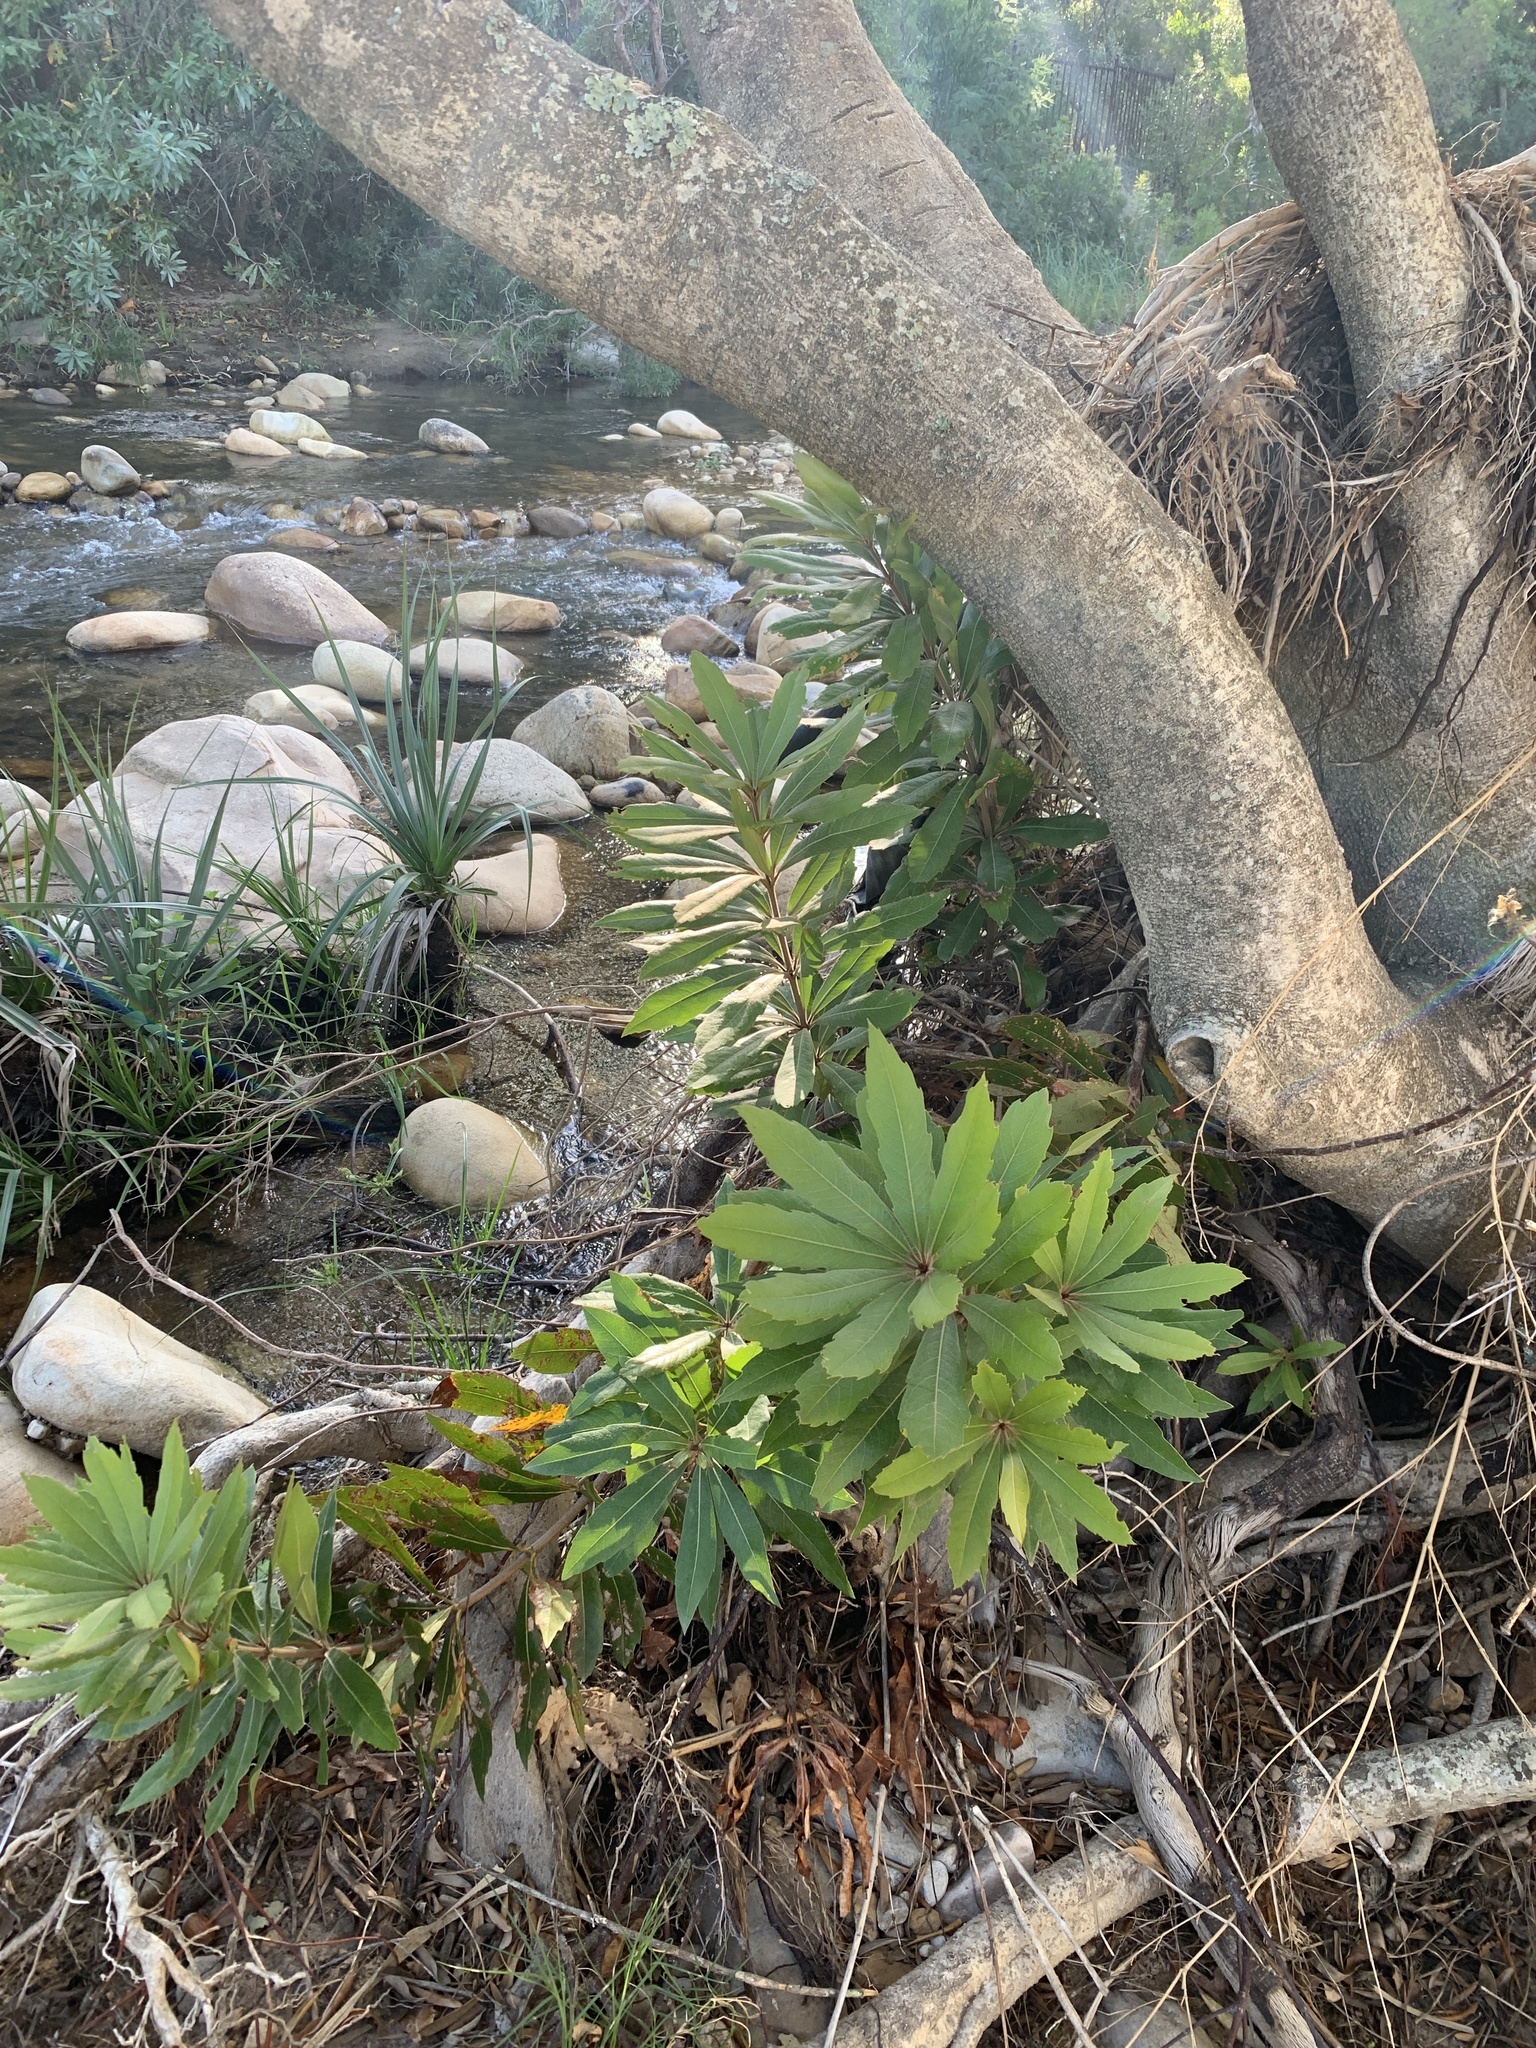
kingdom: Plantae
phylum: Tracheophyta
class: Magnoliopsida
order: Proteales
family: Proteaceae
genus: Brabejum
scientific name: Brabejum stellatifolium
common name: Wild almond
